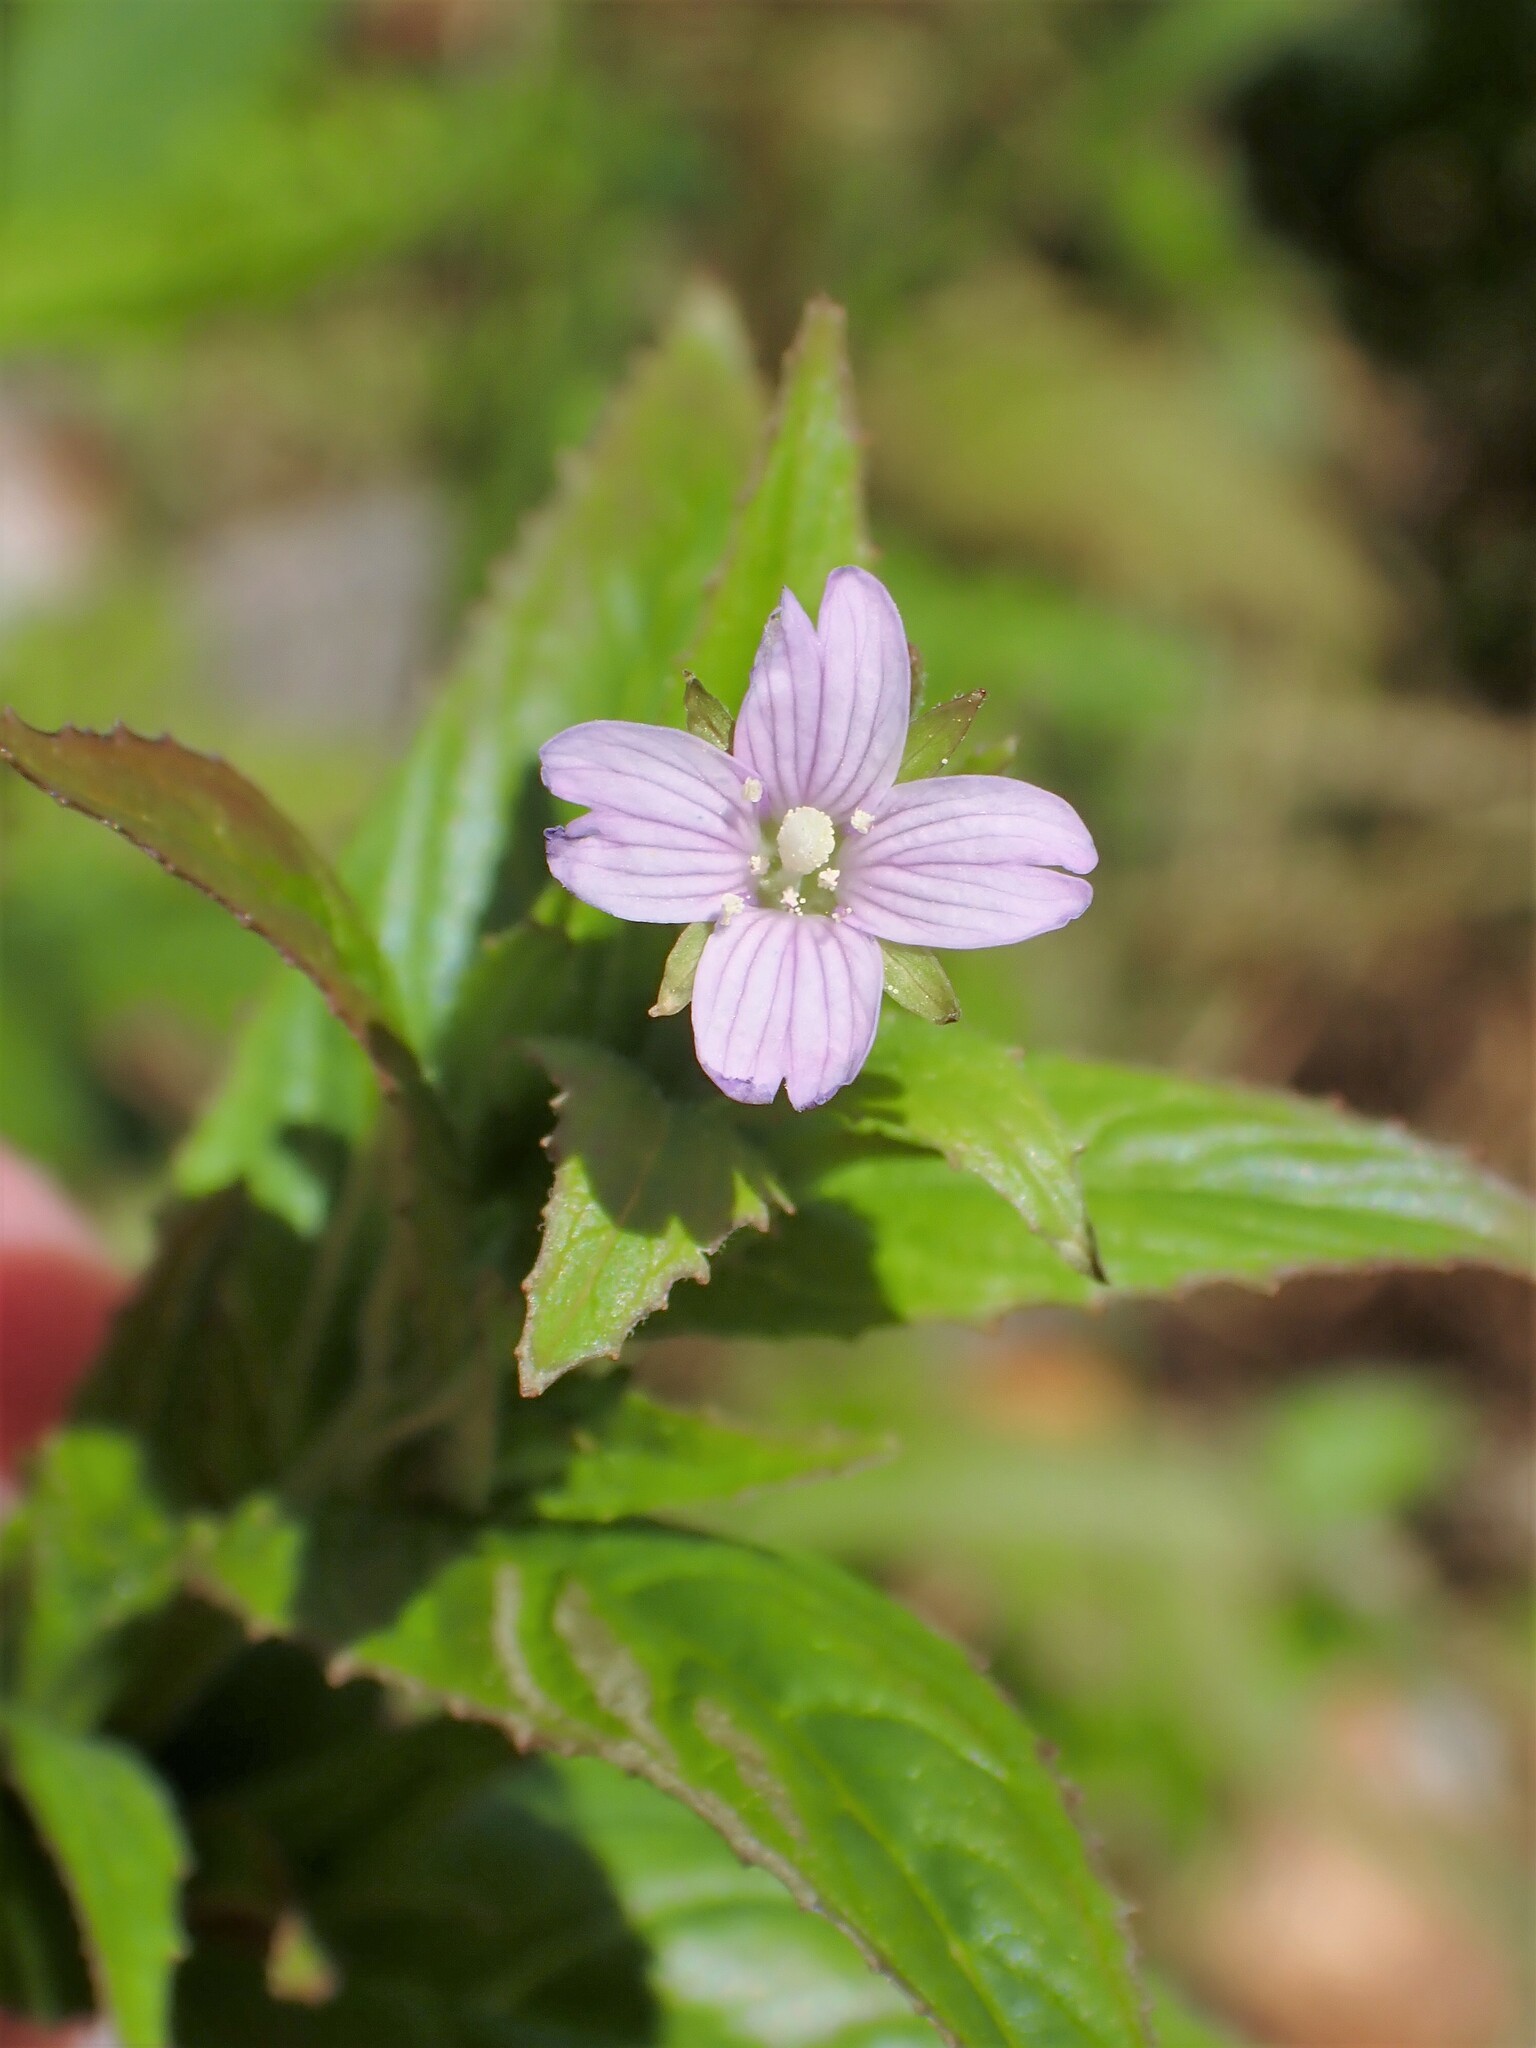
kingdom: Plantae
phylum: Tracheophyta
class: Magnoliopsida
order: Myrtales
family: Onagraceae
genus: Epilobium
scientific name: Epilobium ciliatum
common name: American willowherb
